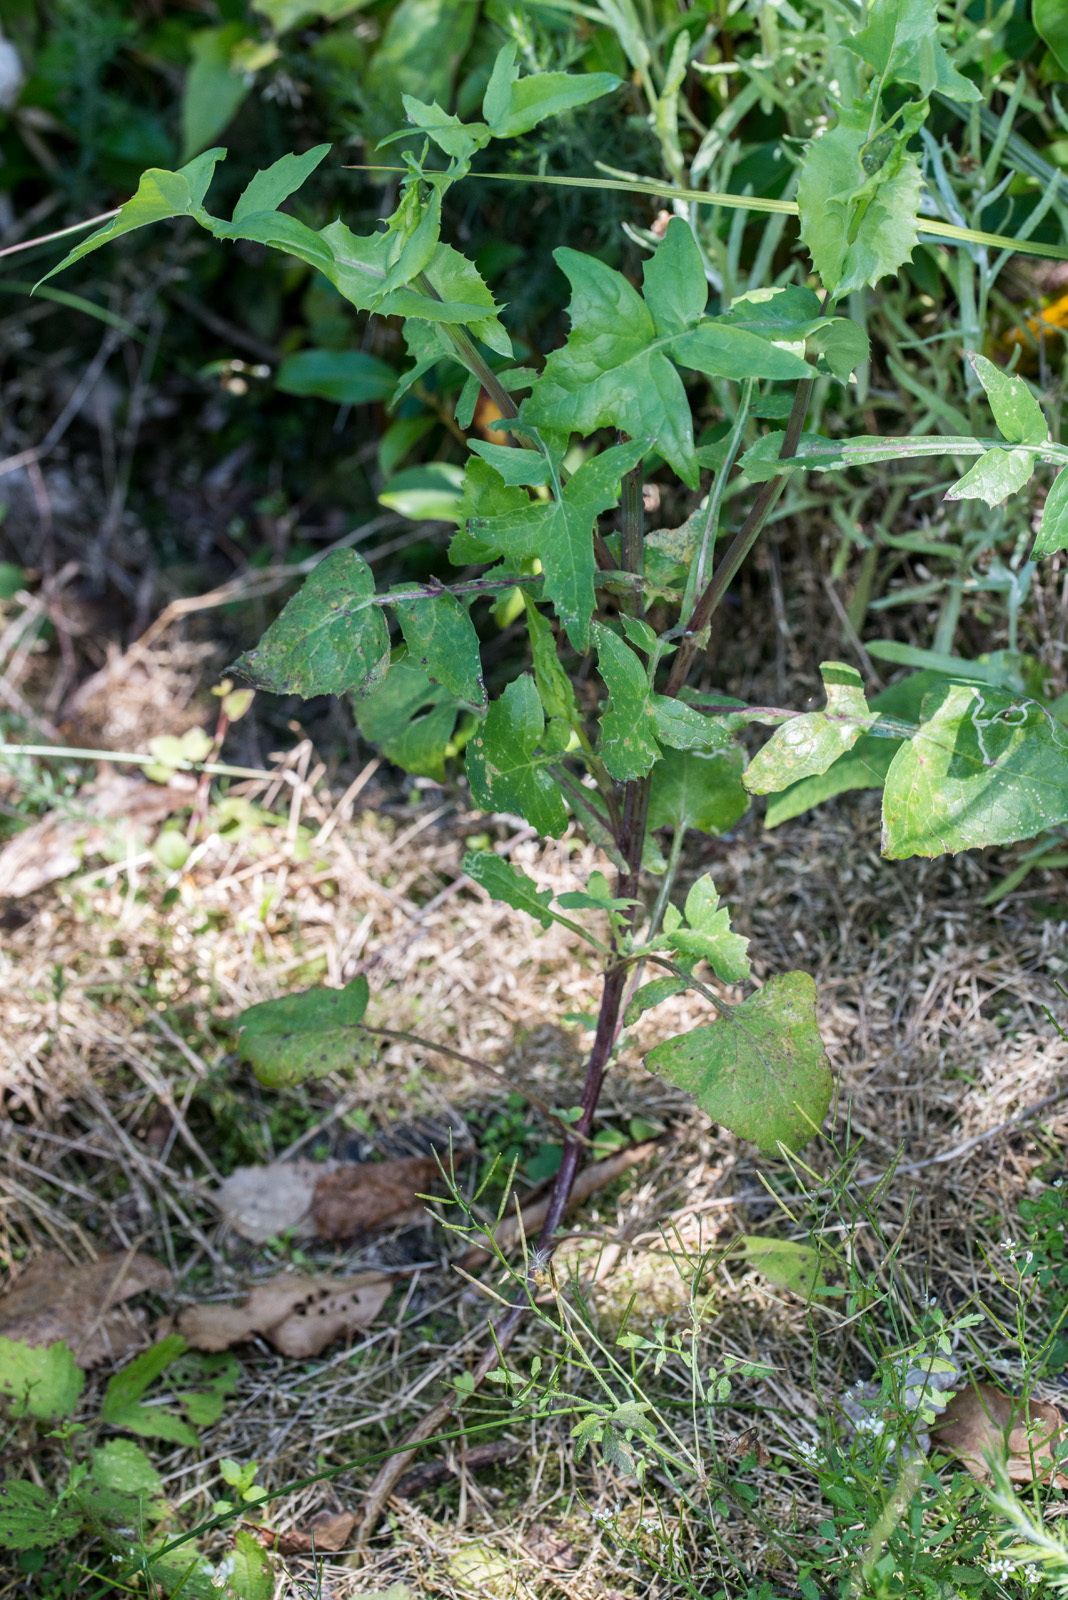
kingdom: Plantae
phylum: Tracheophyta
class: Magnoliopsida
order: Asterales
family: Asteraceae
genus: Sonchus
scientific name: Sonchus oleraceus
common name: Common sowthistle
